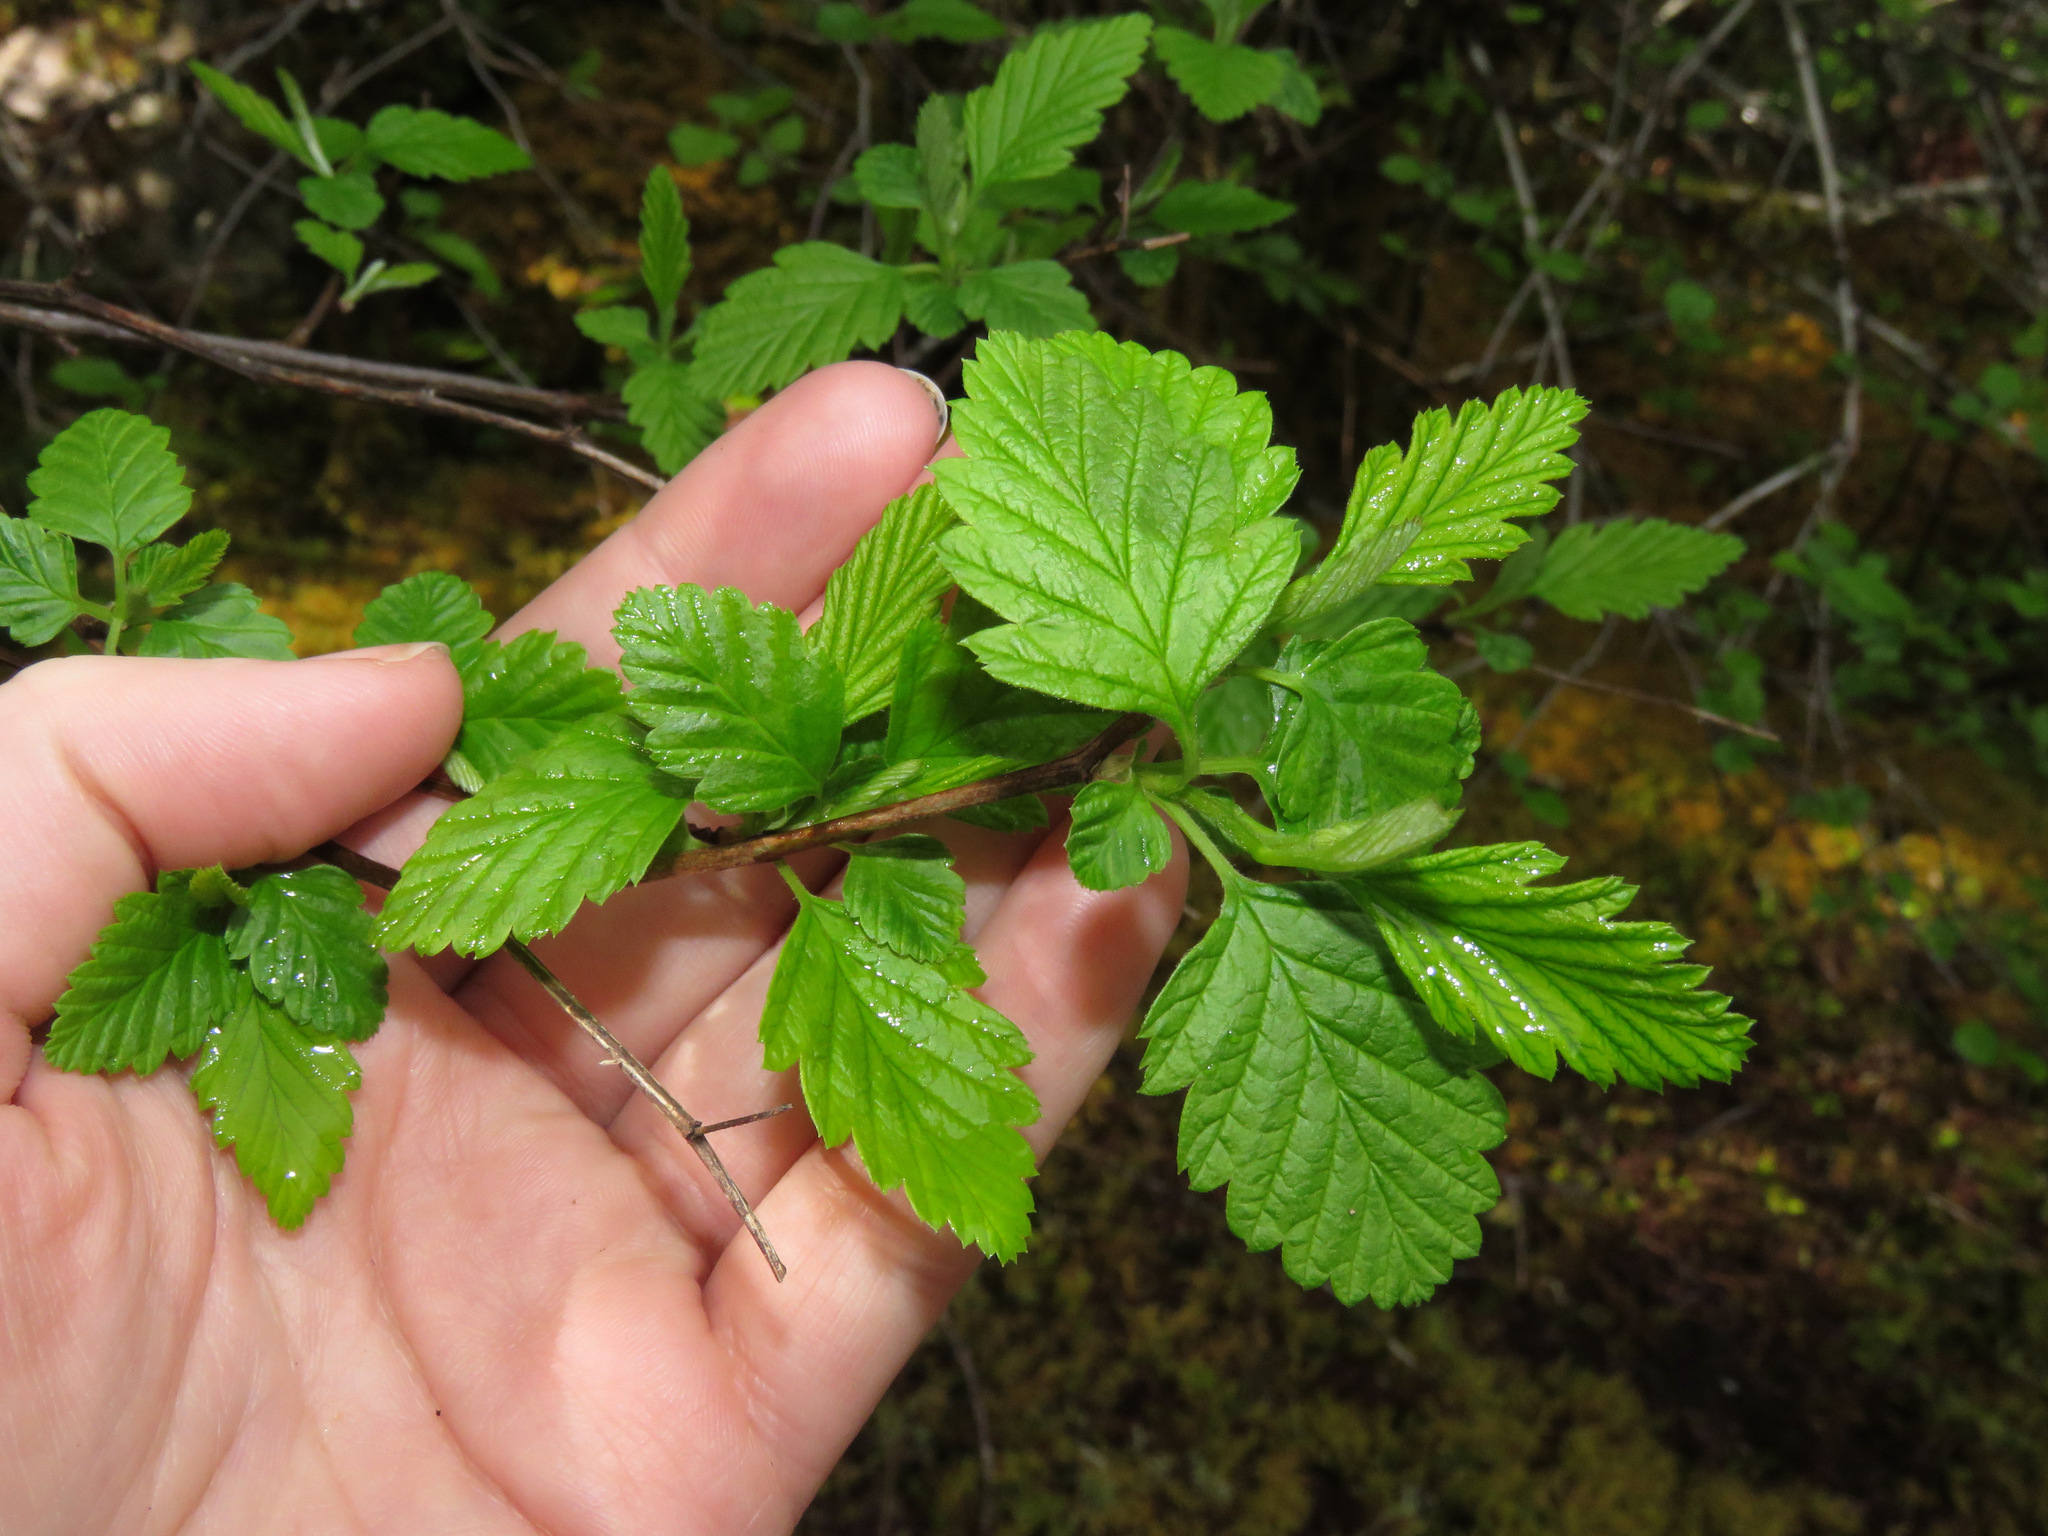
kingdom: Plantae
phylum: Tracheophyta
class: Magnoliopsida
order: Rosales
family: Rosaceae
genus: Holodiscus
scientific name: Holodiscus discolor
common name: Oceanspray
